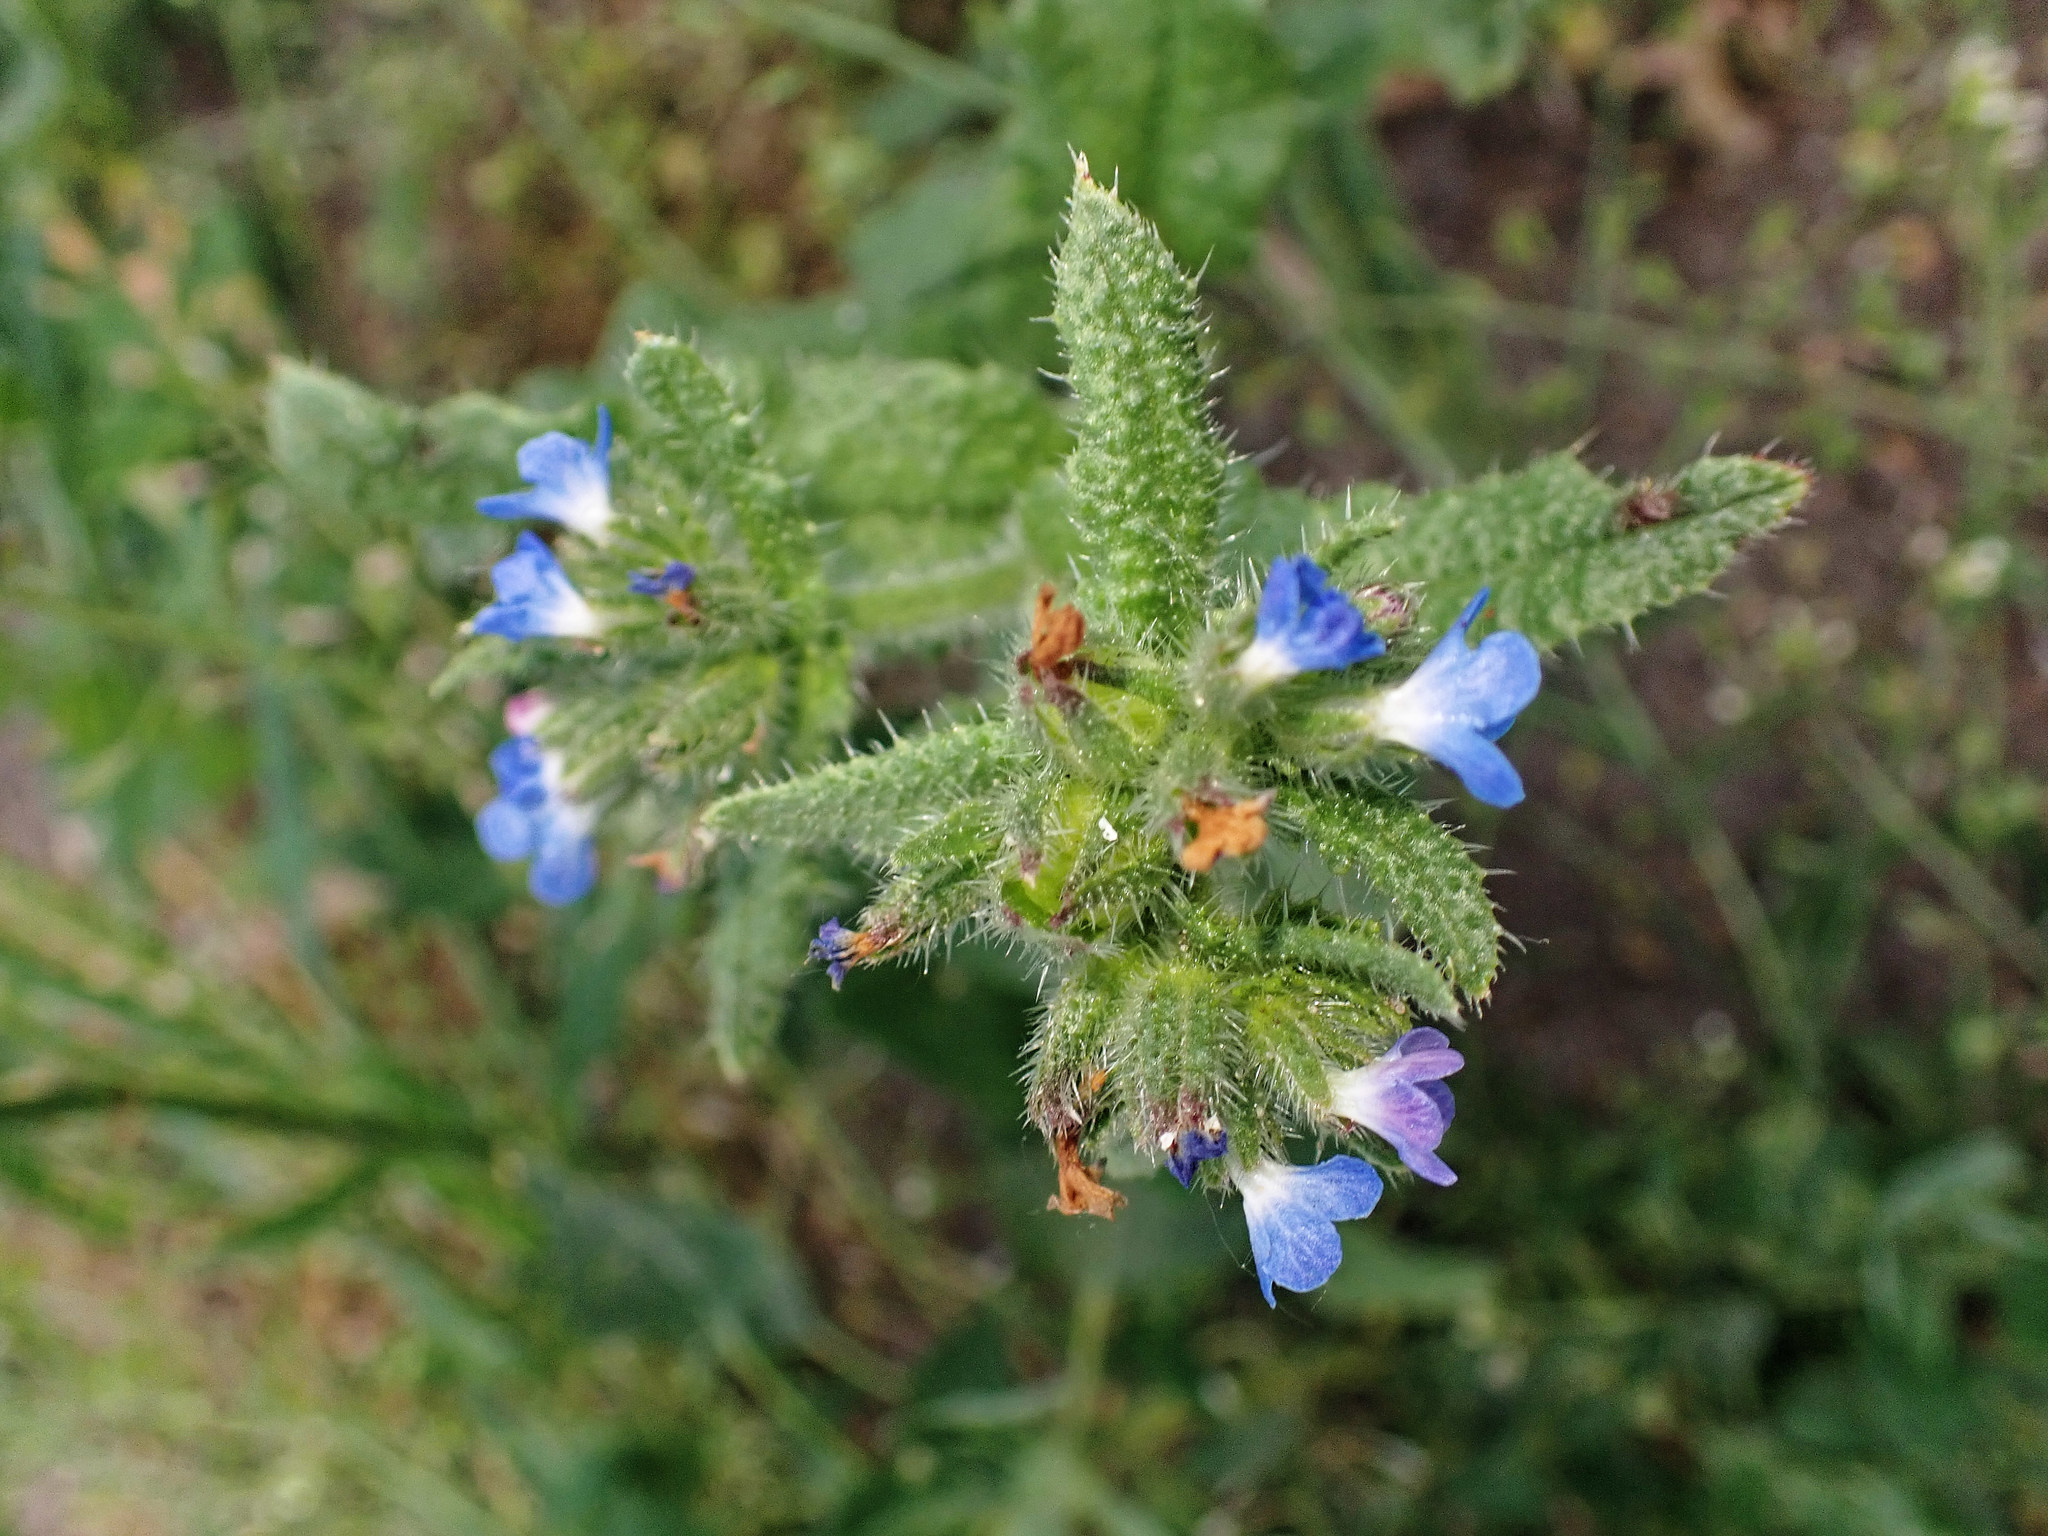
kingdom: Plantae
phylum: Tracheophyta
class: Magnoliopsida
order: Boraginales
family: Boraginaceae
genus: Lycopsis
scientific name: Lycopsis arvensis
